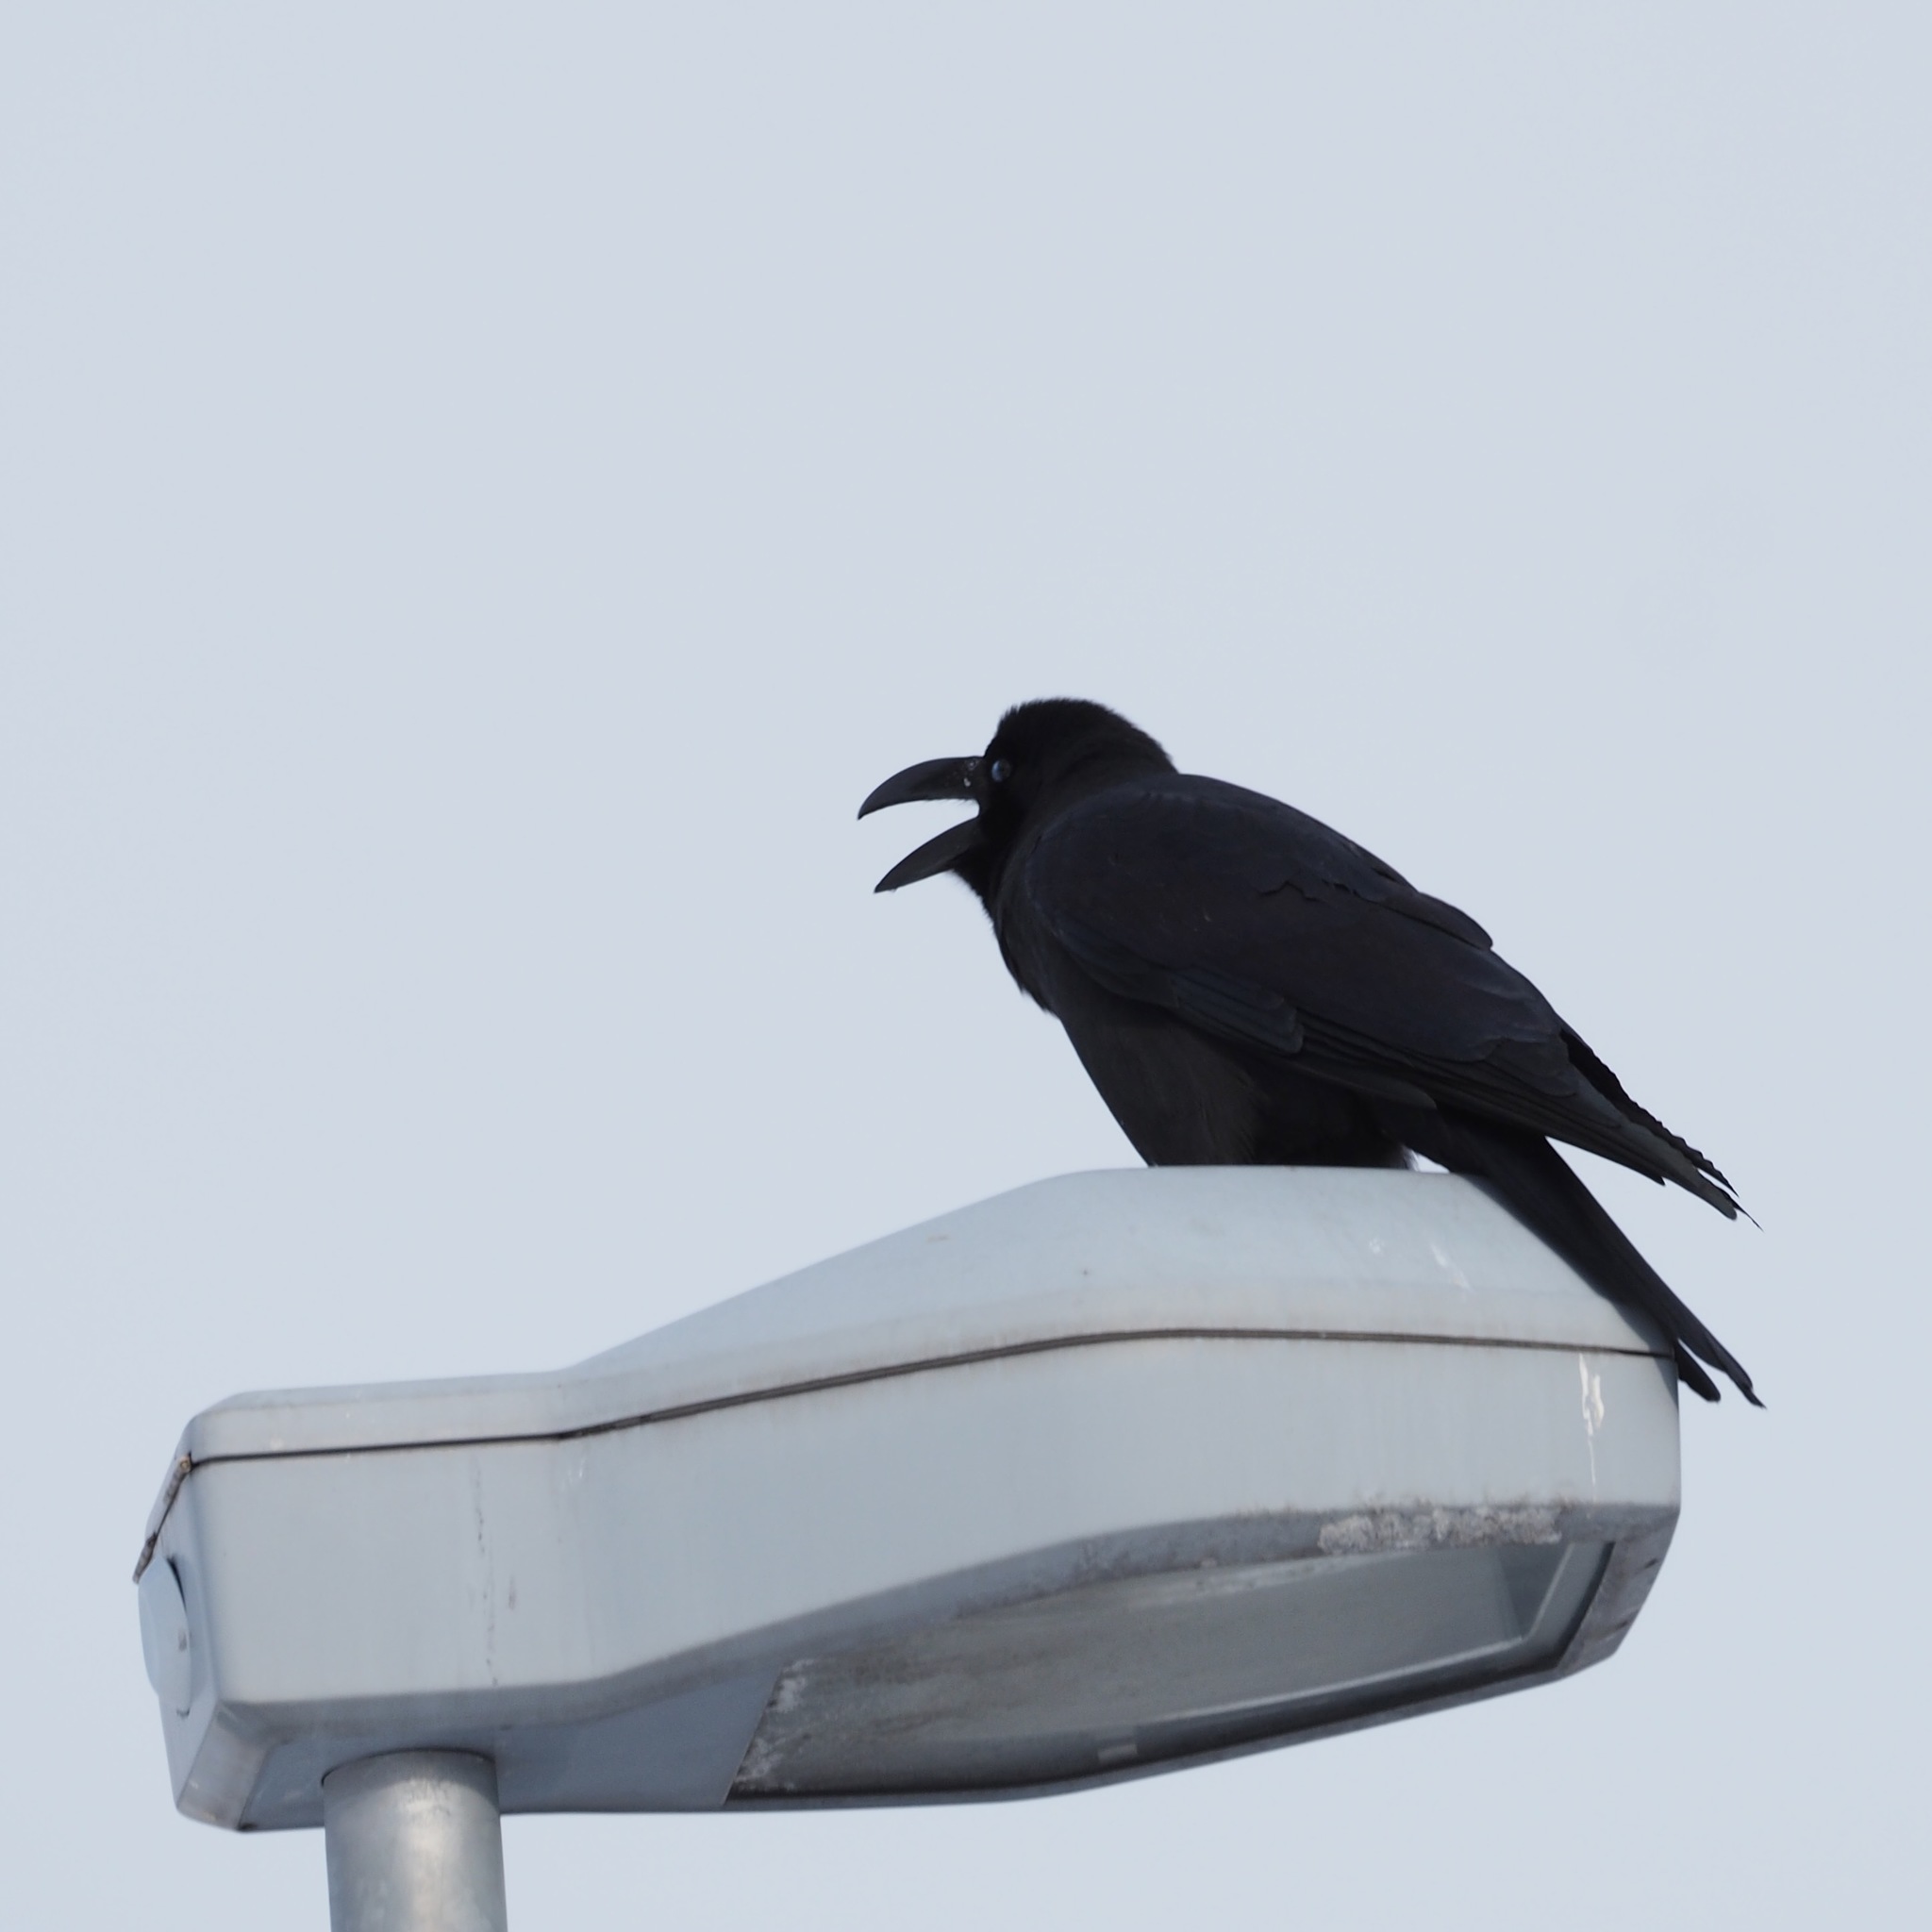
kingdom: Animalia
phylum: Chordata
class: Aves
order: Passeriformes
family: Corvidae
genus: Corvus
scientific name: Corvus macrorhynchos
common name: Large-billed crow
